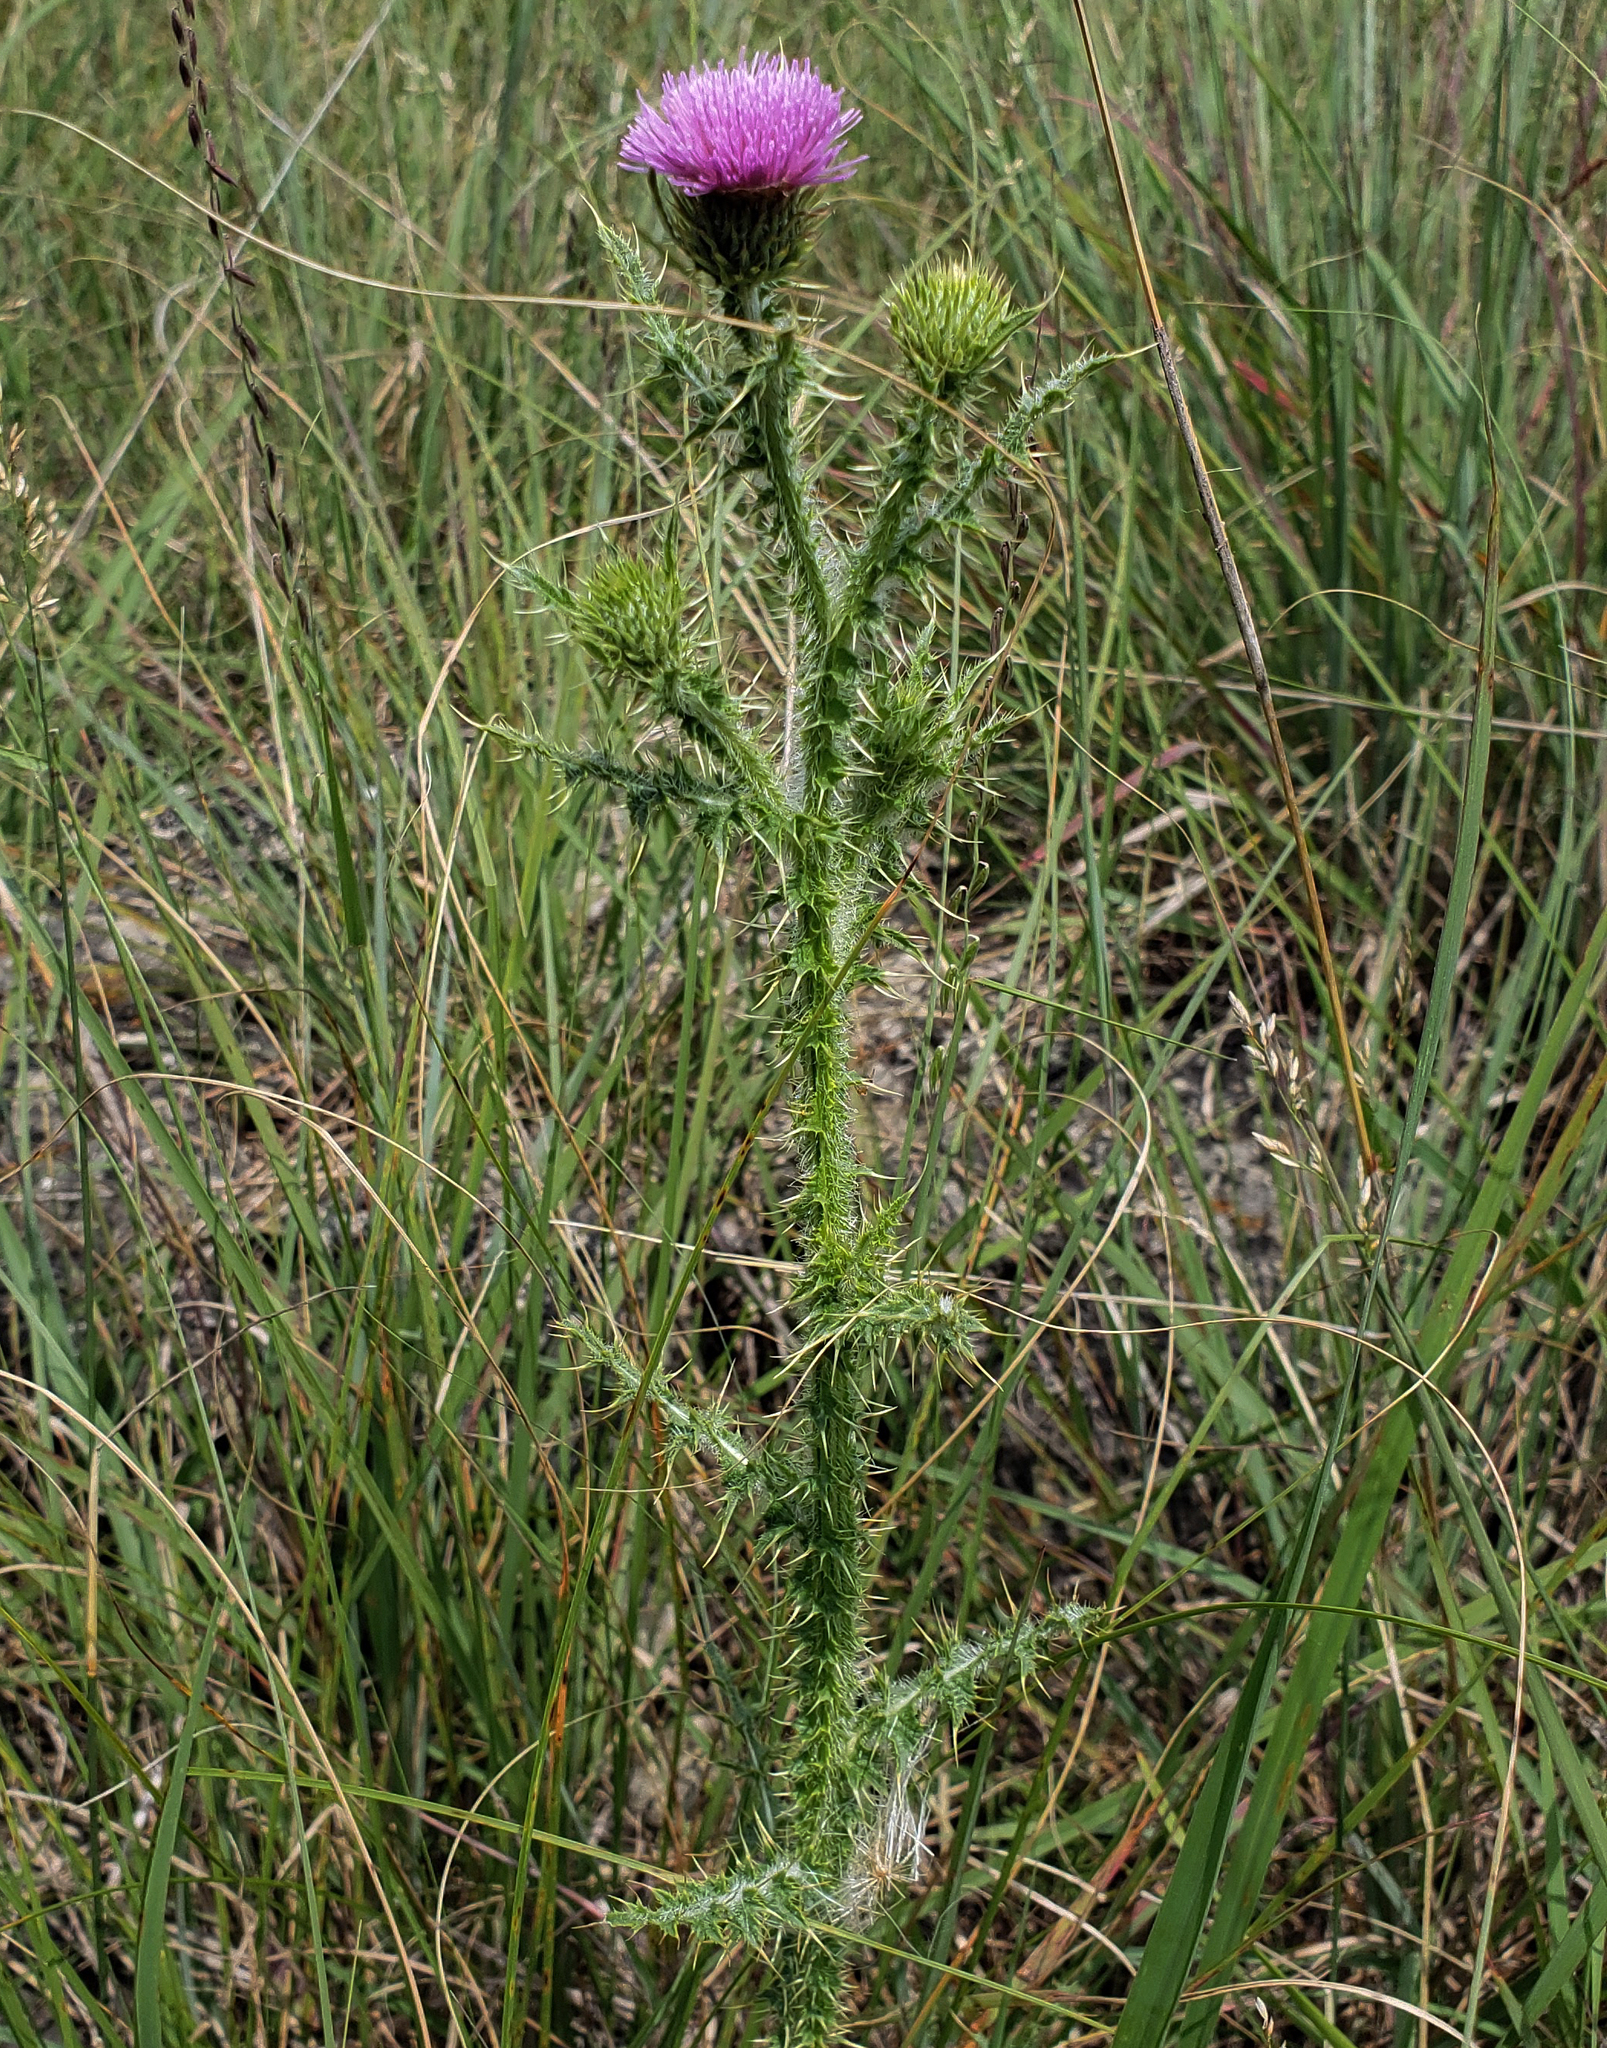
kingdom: Plantae
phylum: Tracheophyta
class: Magnoliopsida
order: Asterales
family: Asteraceae
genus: Carduus
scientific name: Carduus acanthoides
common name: Plumeless thistle
